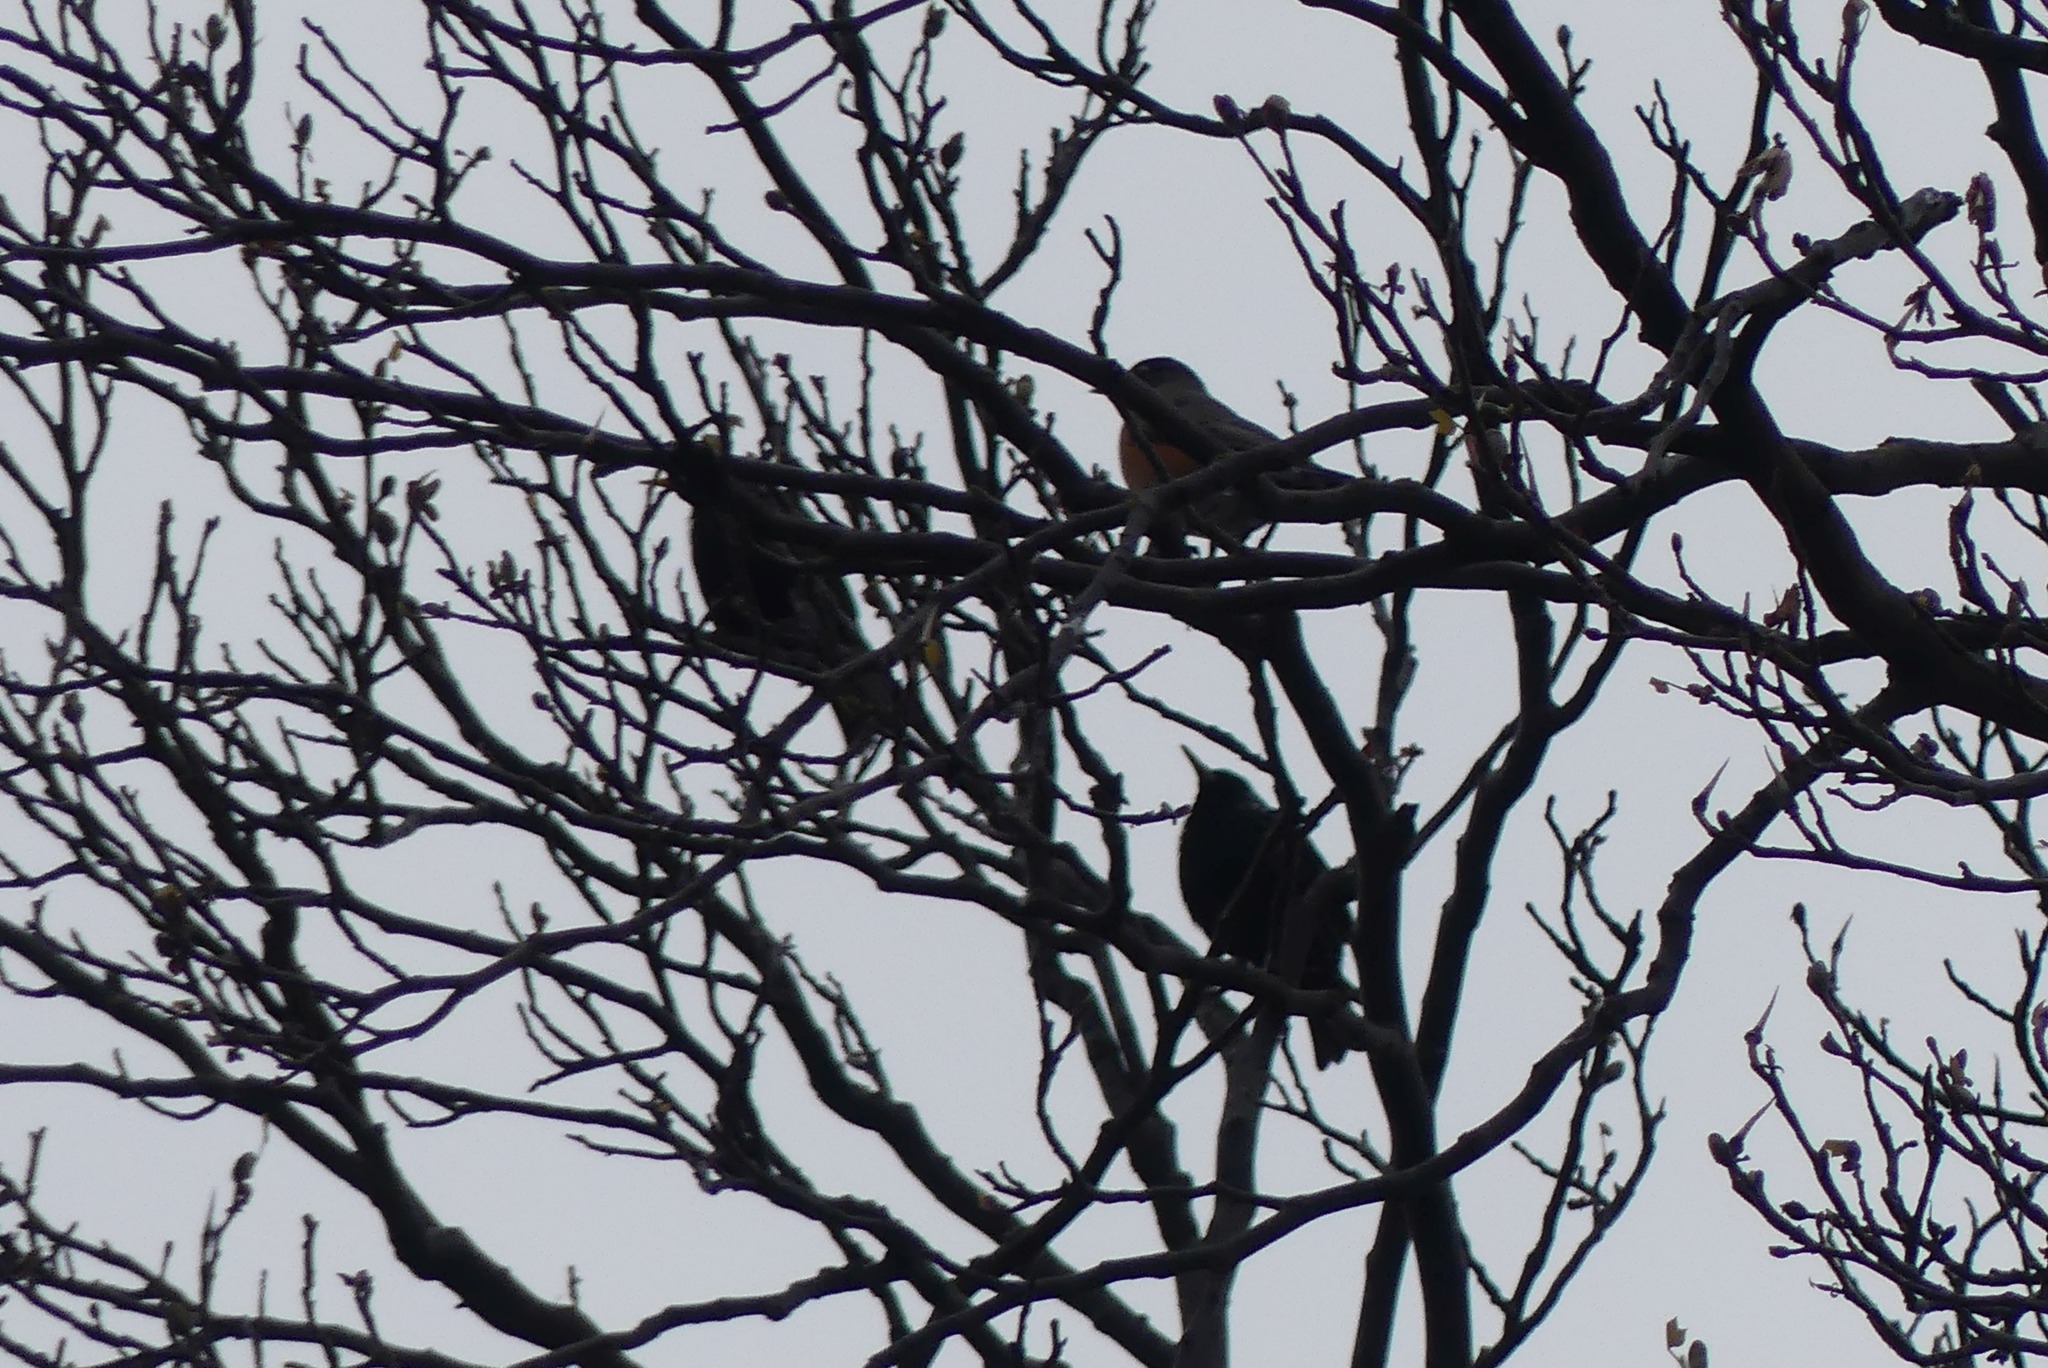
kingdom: Animalia
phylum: Chordata
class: Aves
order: Passeriformes
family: Turdidae
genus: Turdus
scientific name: Turdus migratorius
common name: American robin
